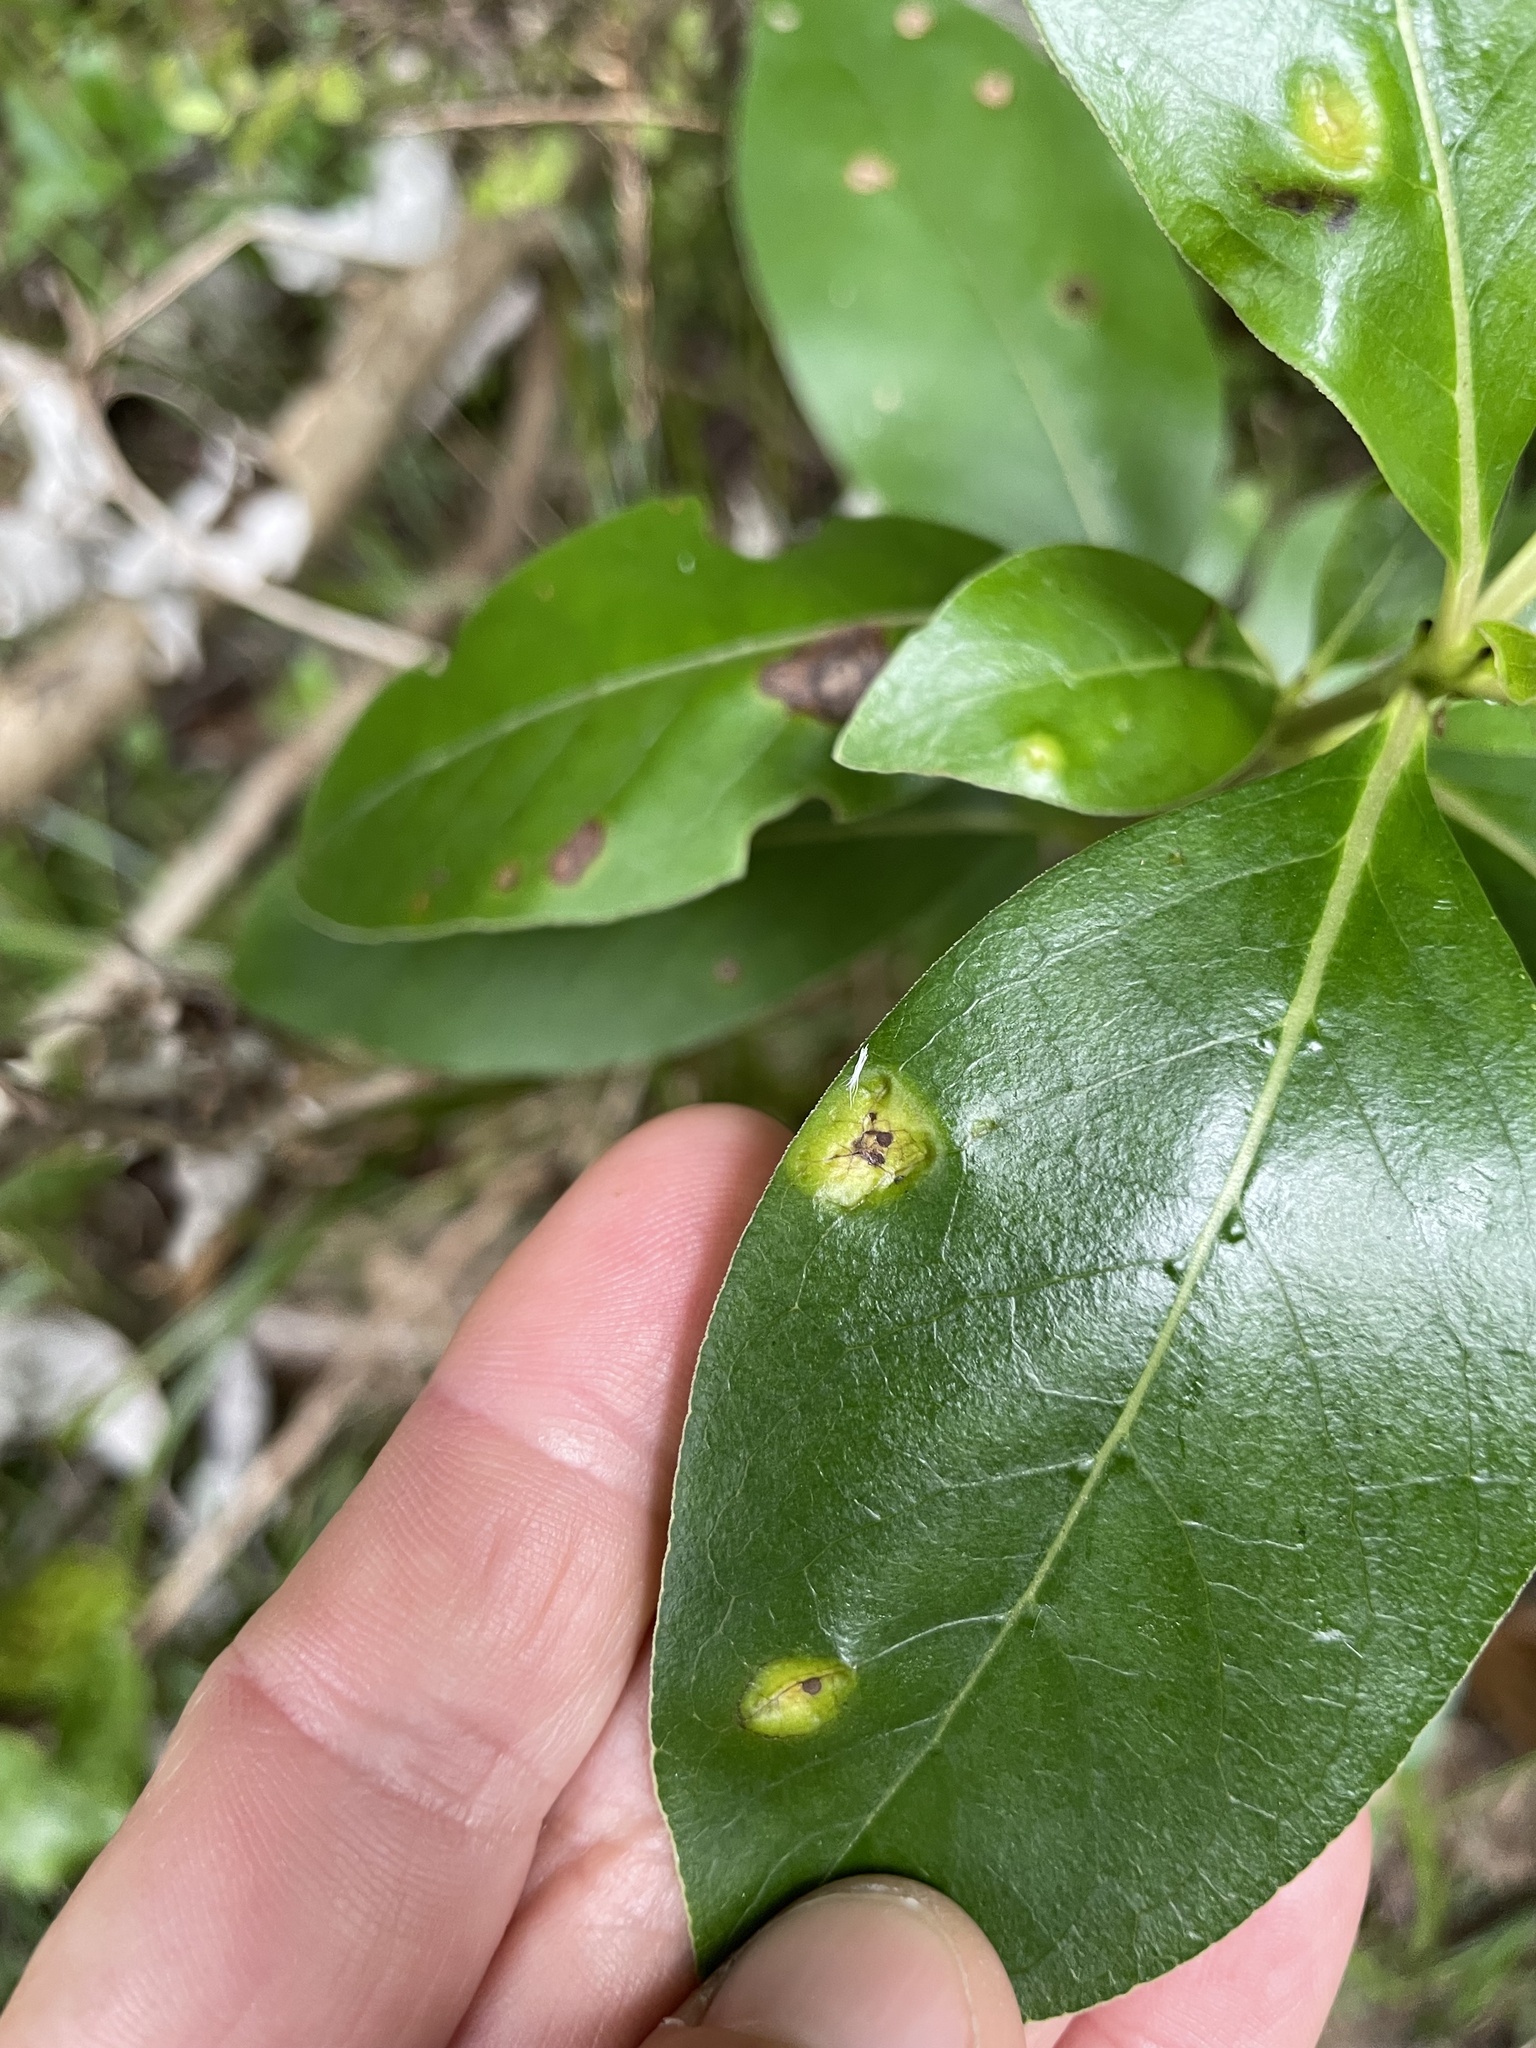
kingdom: Fungi
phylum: Basidiomycota
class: Pucciniomycetes
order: Pucciniales
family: Pucciniaceae
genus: Puccinia
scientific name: Puccinia coprosmae
